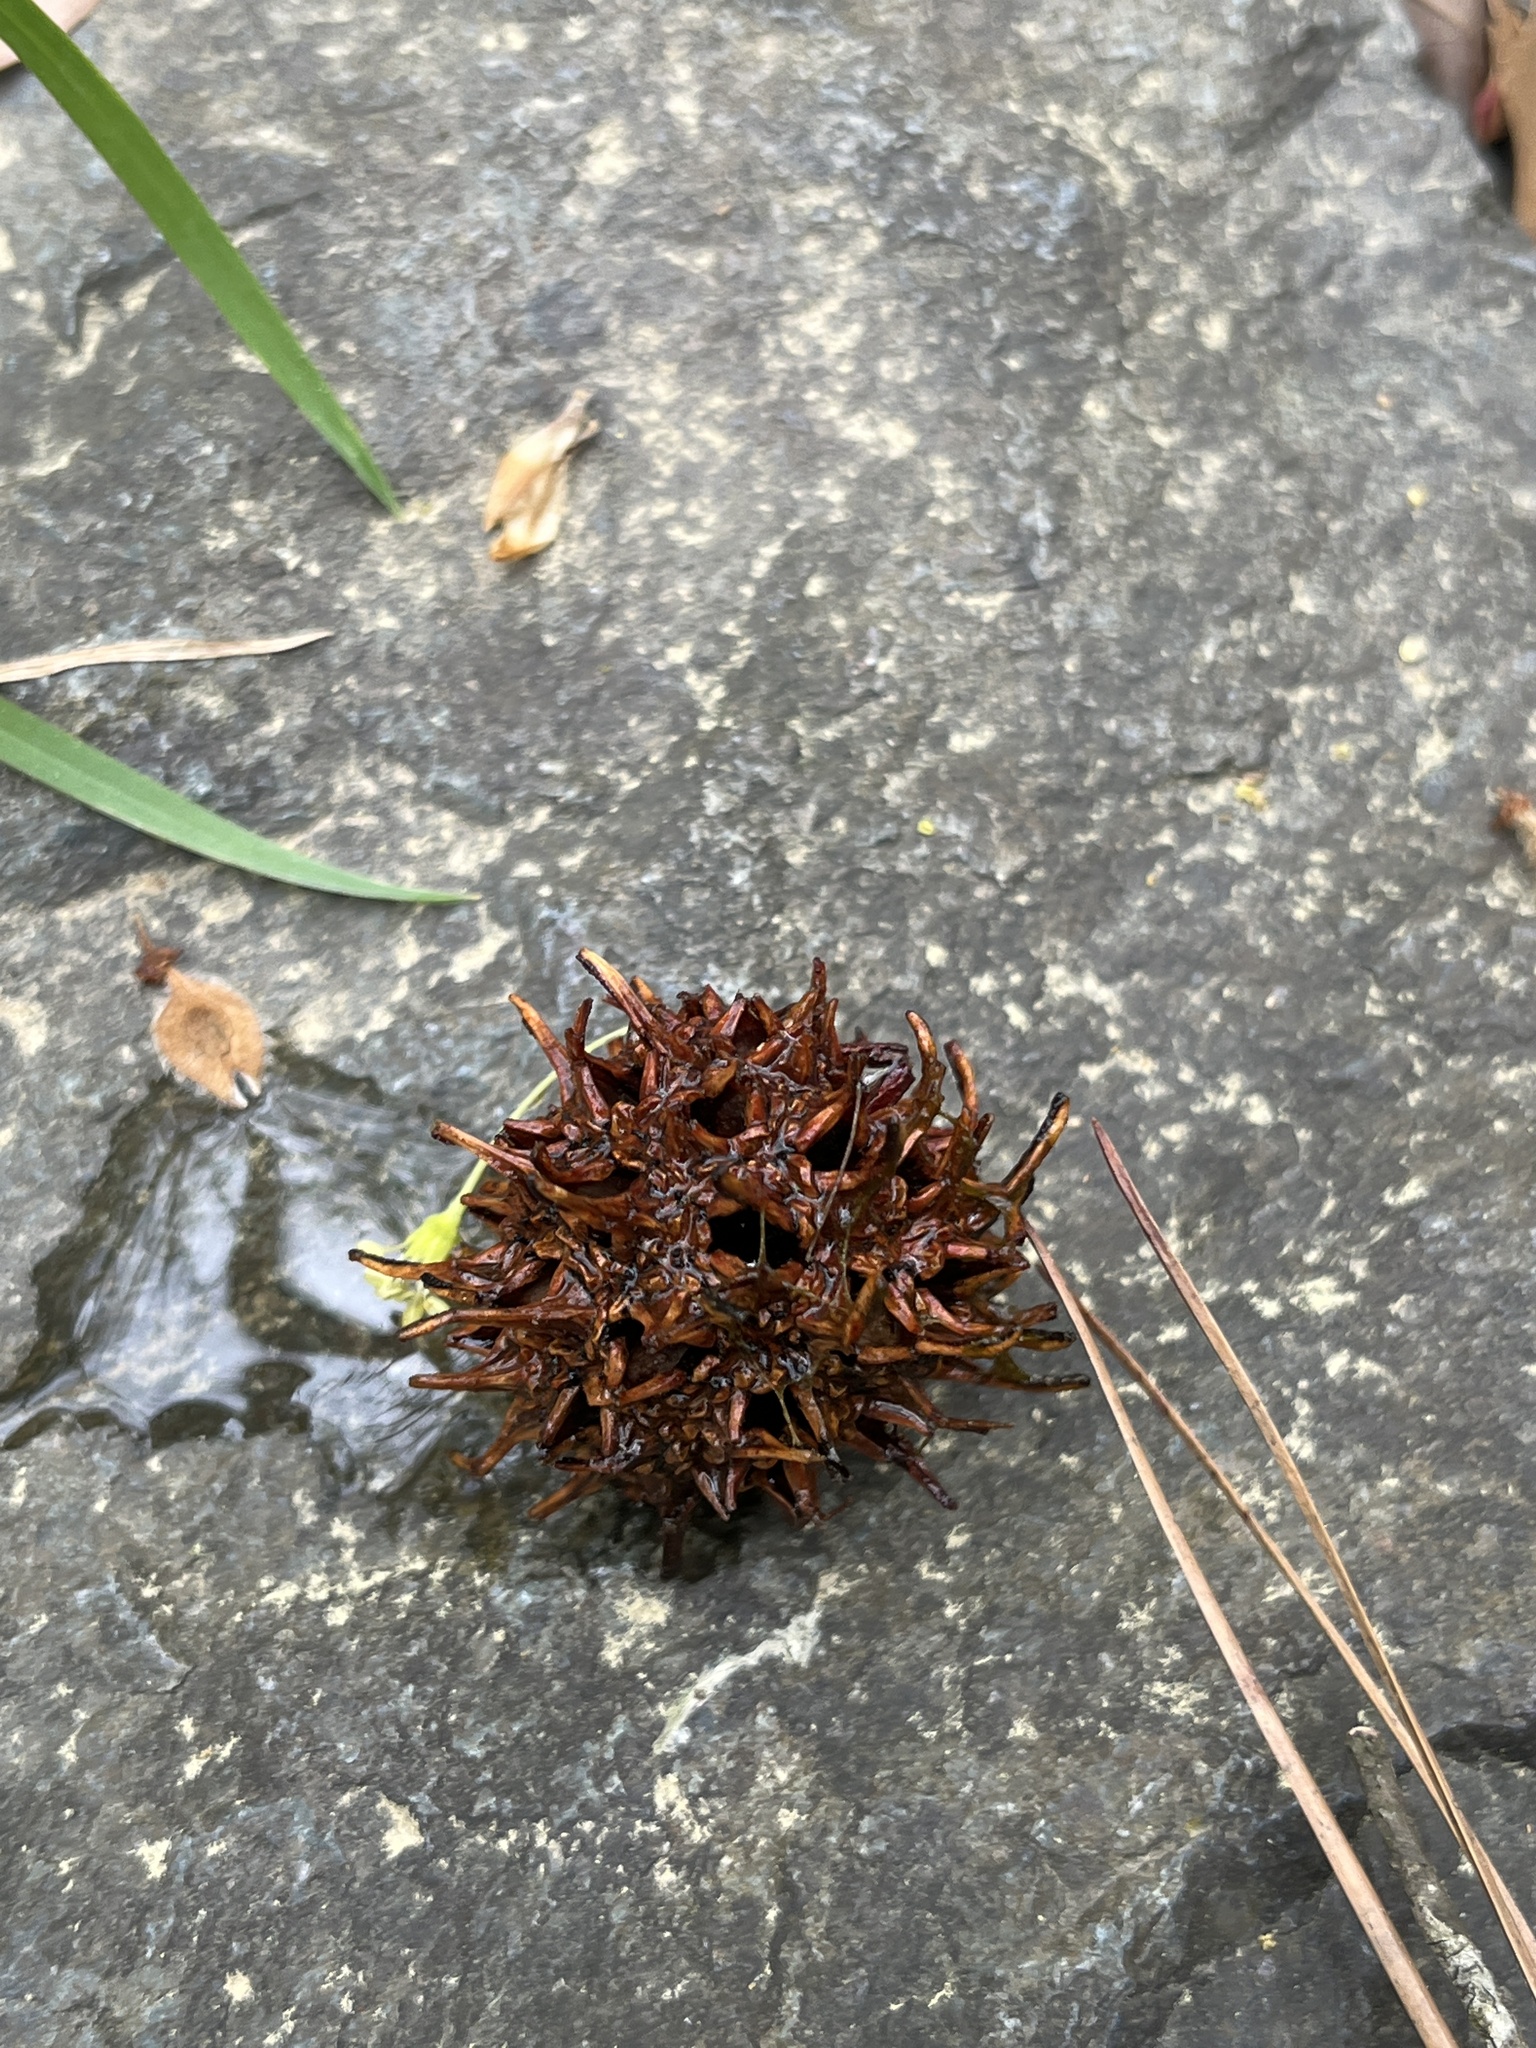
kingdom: Plantae
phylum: Tracheophyta
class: Magnoliopsida
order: Saxifragales
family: Altingiaceae
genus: Liquidambar
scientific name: Liquidambar styraciflua
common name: Sweet gum
